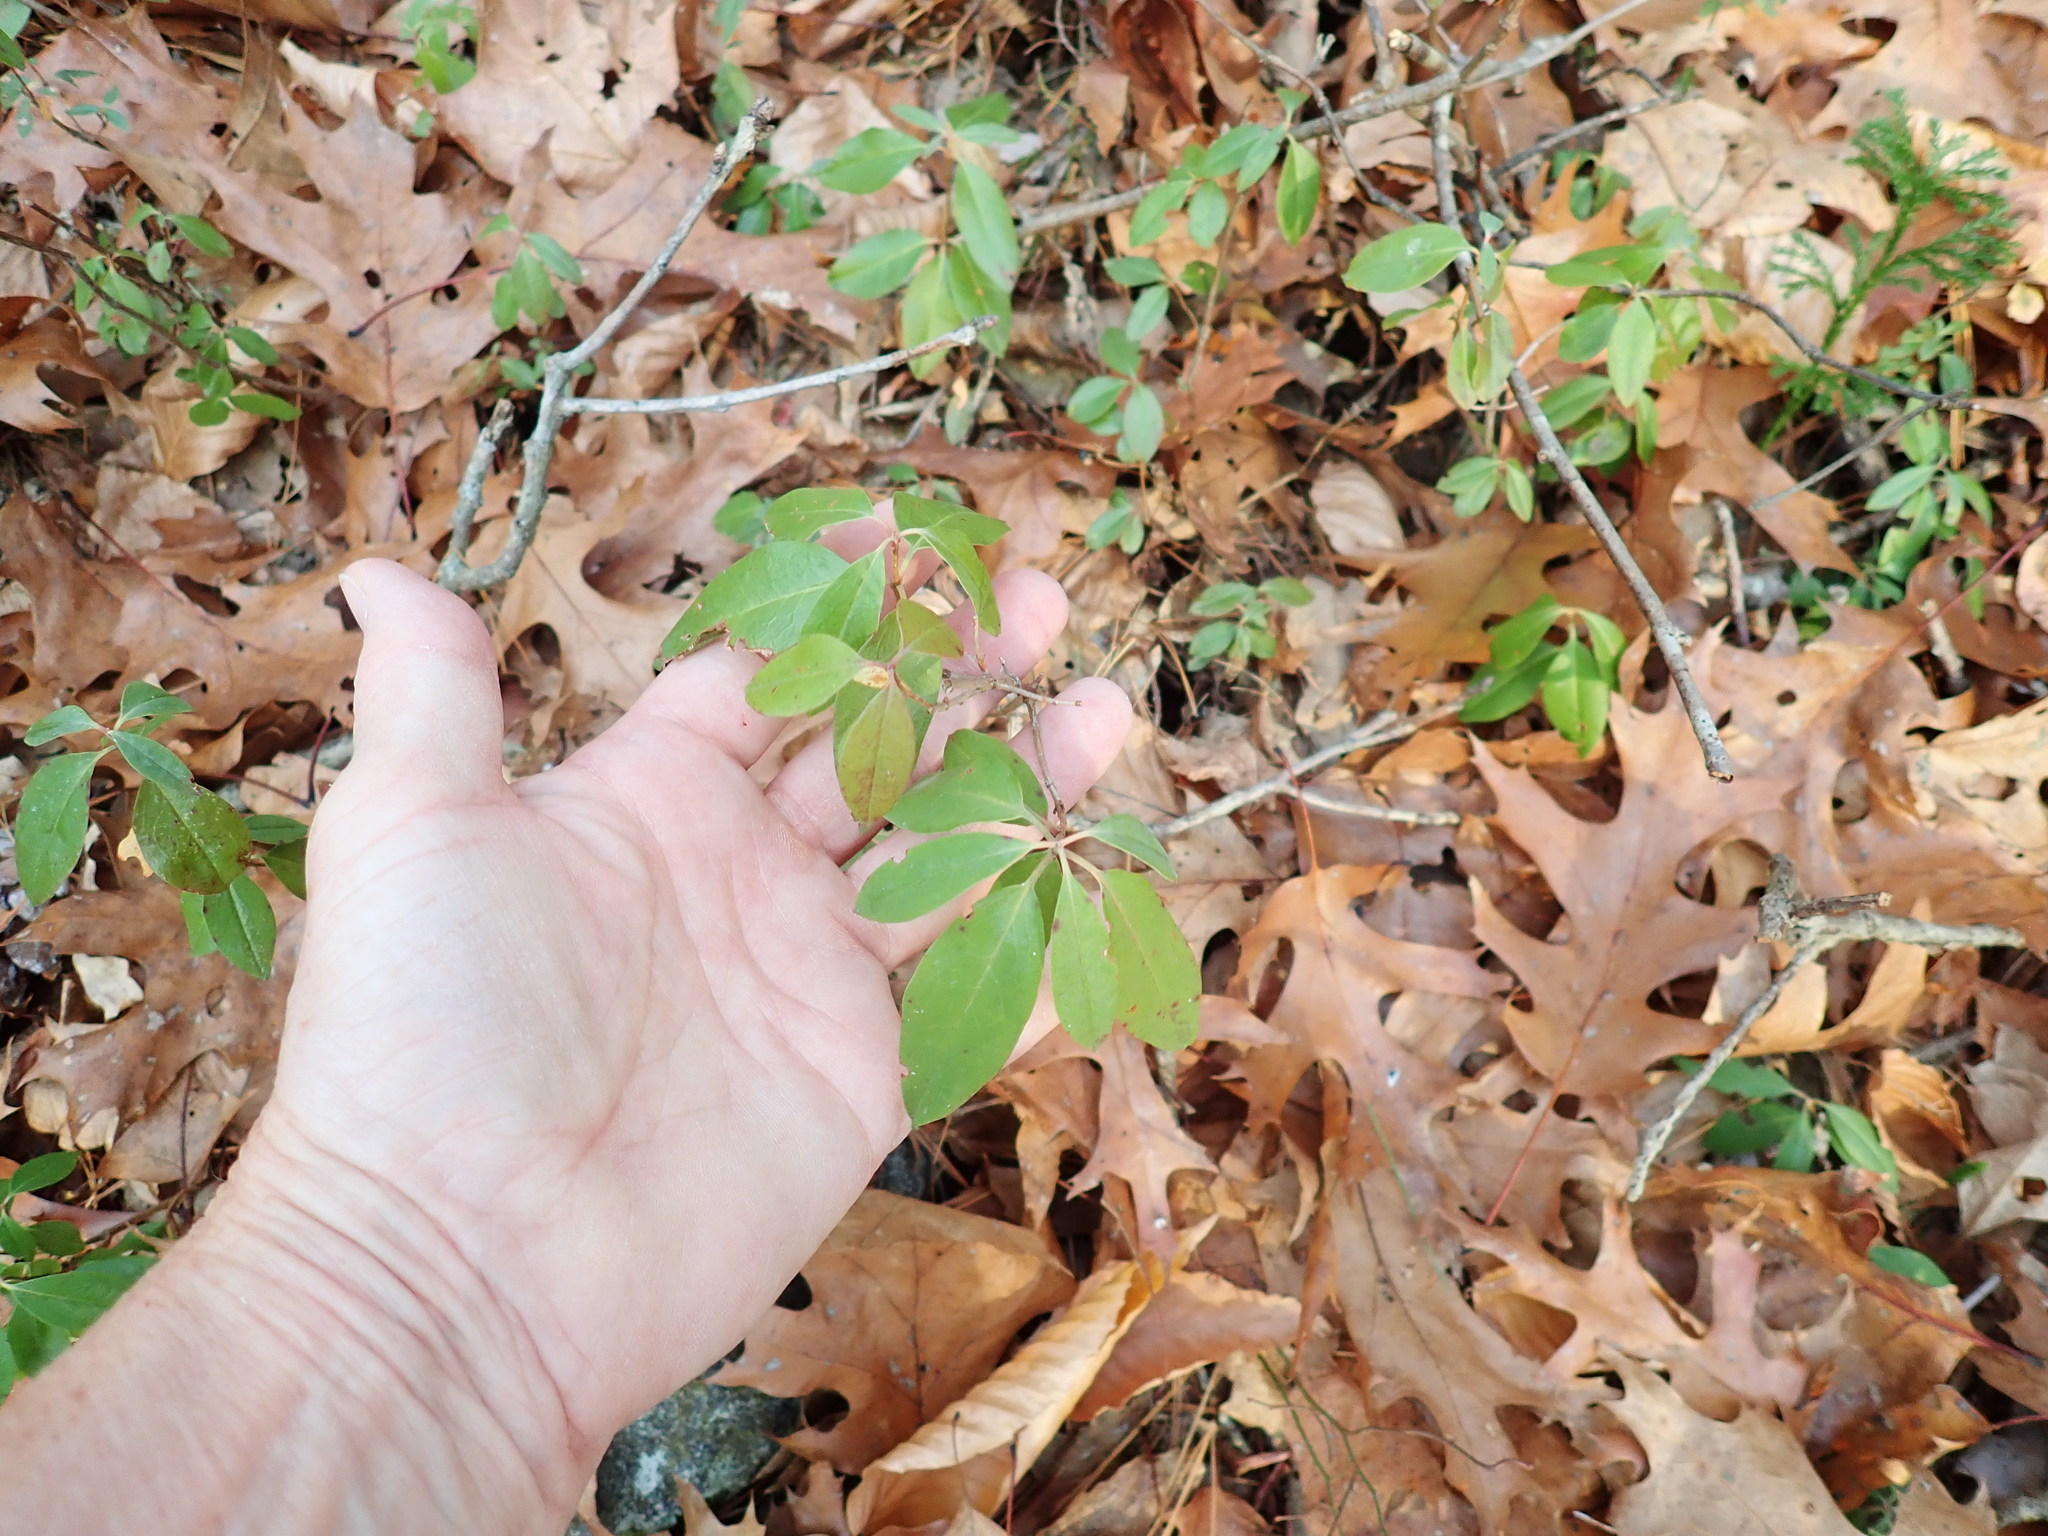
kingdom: Plantae
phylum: Tracheophyta
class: Magnoliopsida
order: Ericales
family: Ericaceae
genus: Kalmia
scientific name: Kalmia angustifolia
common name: Sheep-laurel
